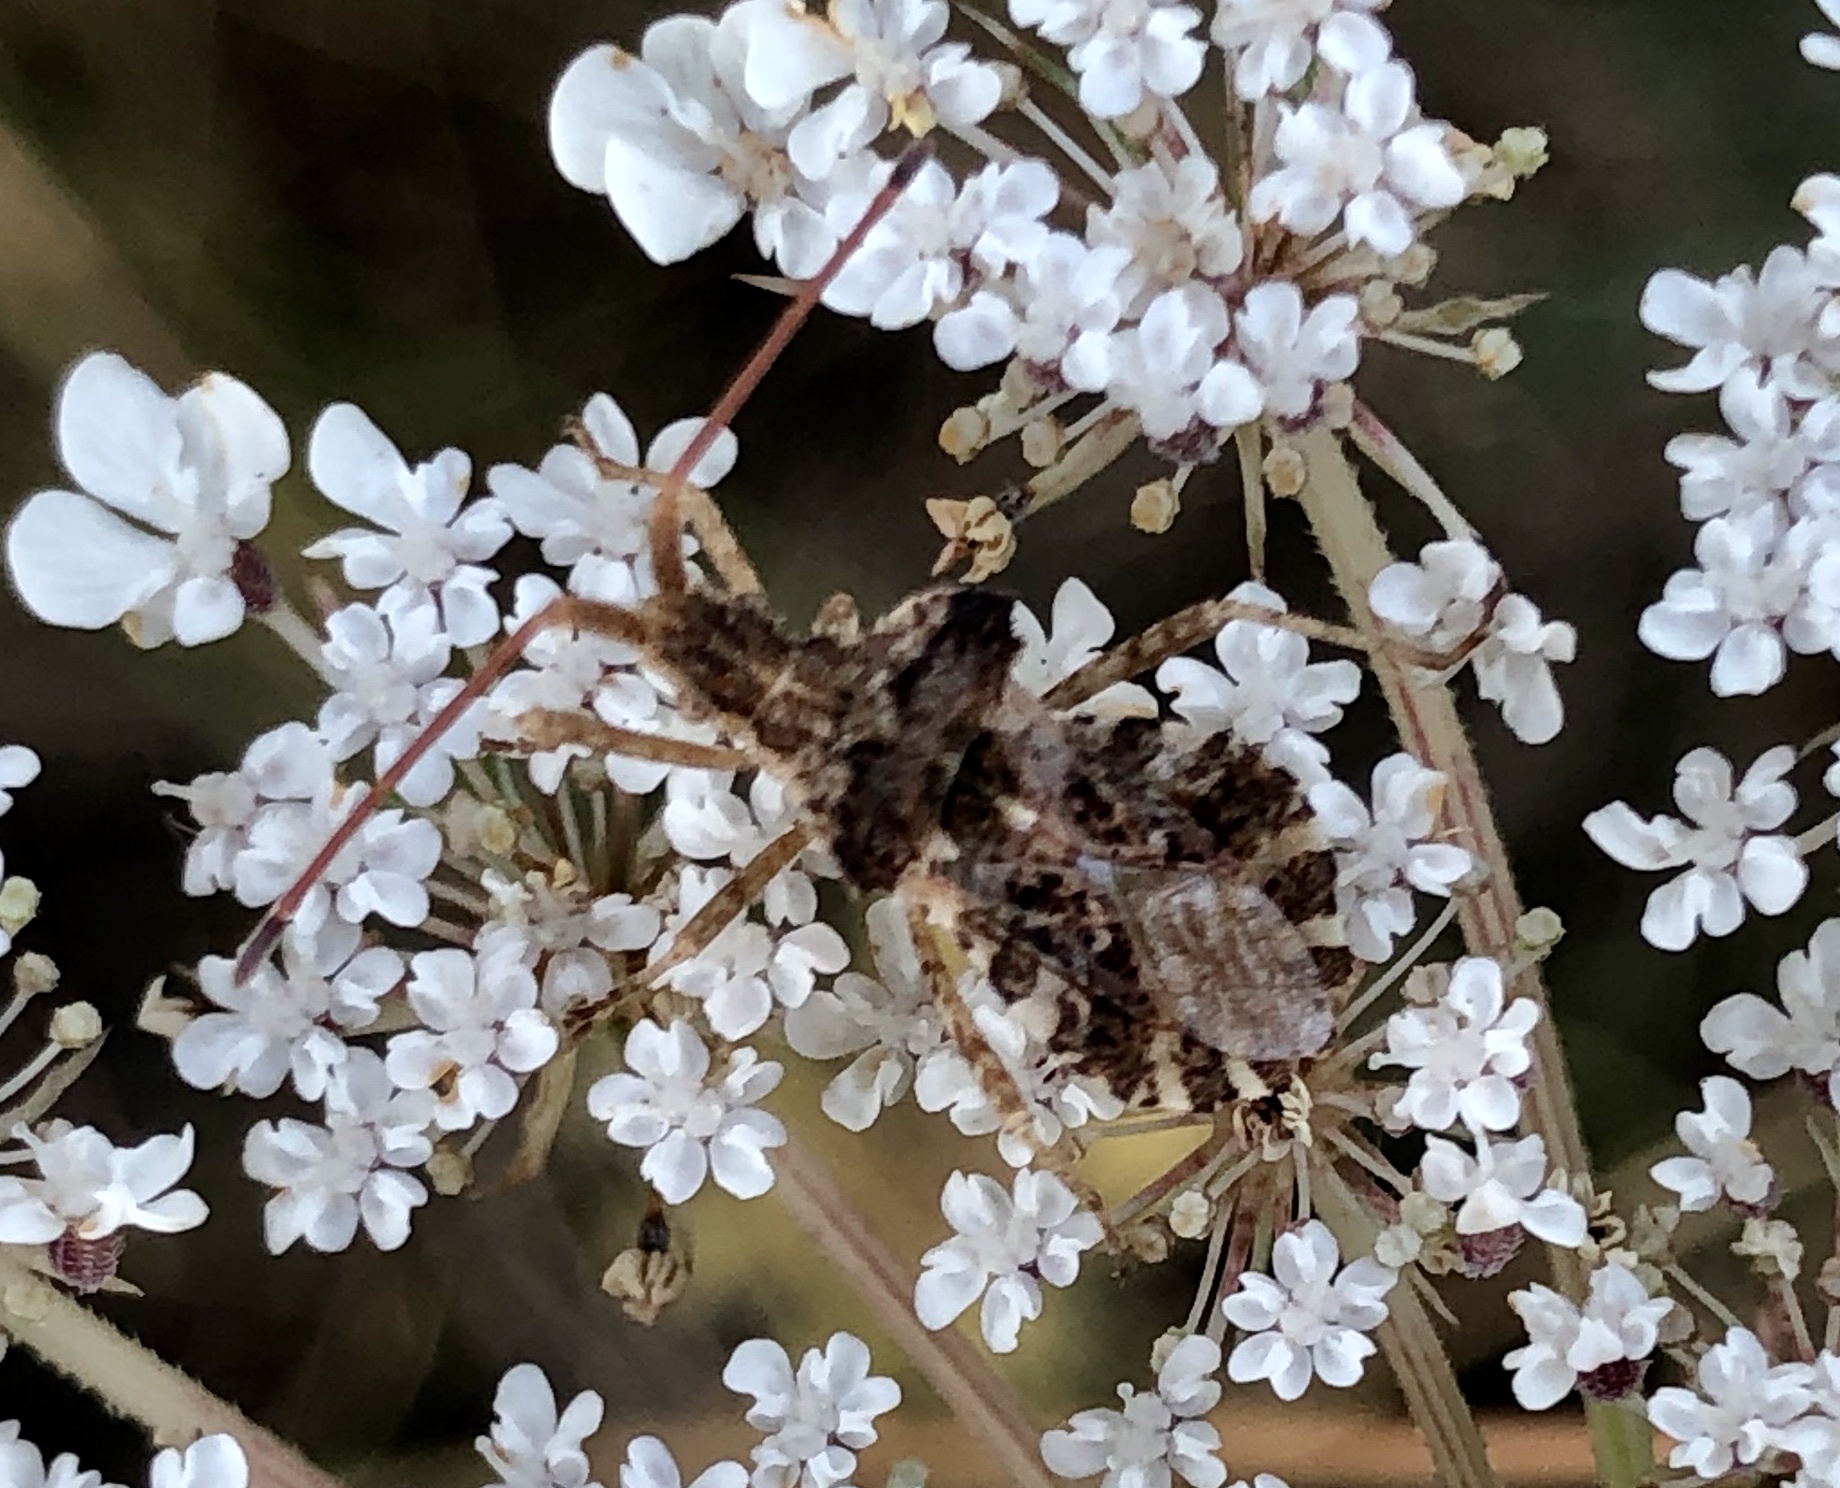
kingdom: Animalia
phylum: Arthropoda
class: Insecta
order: Hemiptera
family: Coreidae
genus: Centrocoris
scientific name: Centrocoris spiniger
